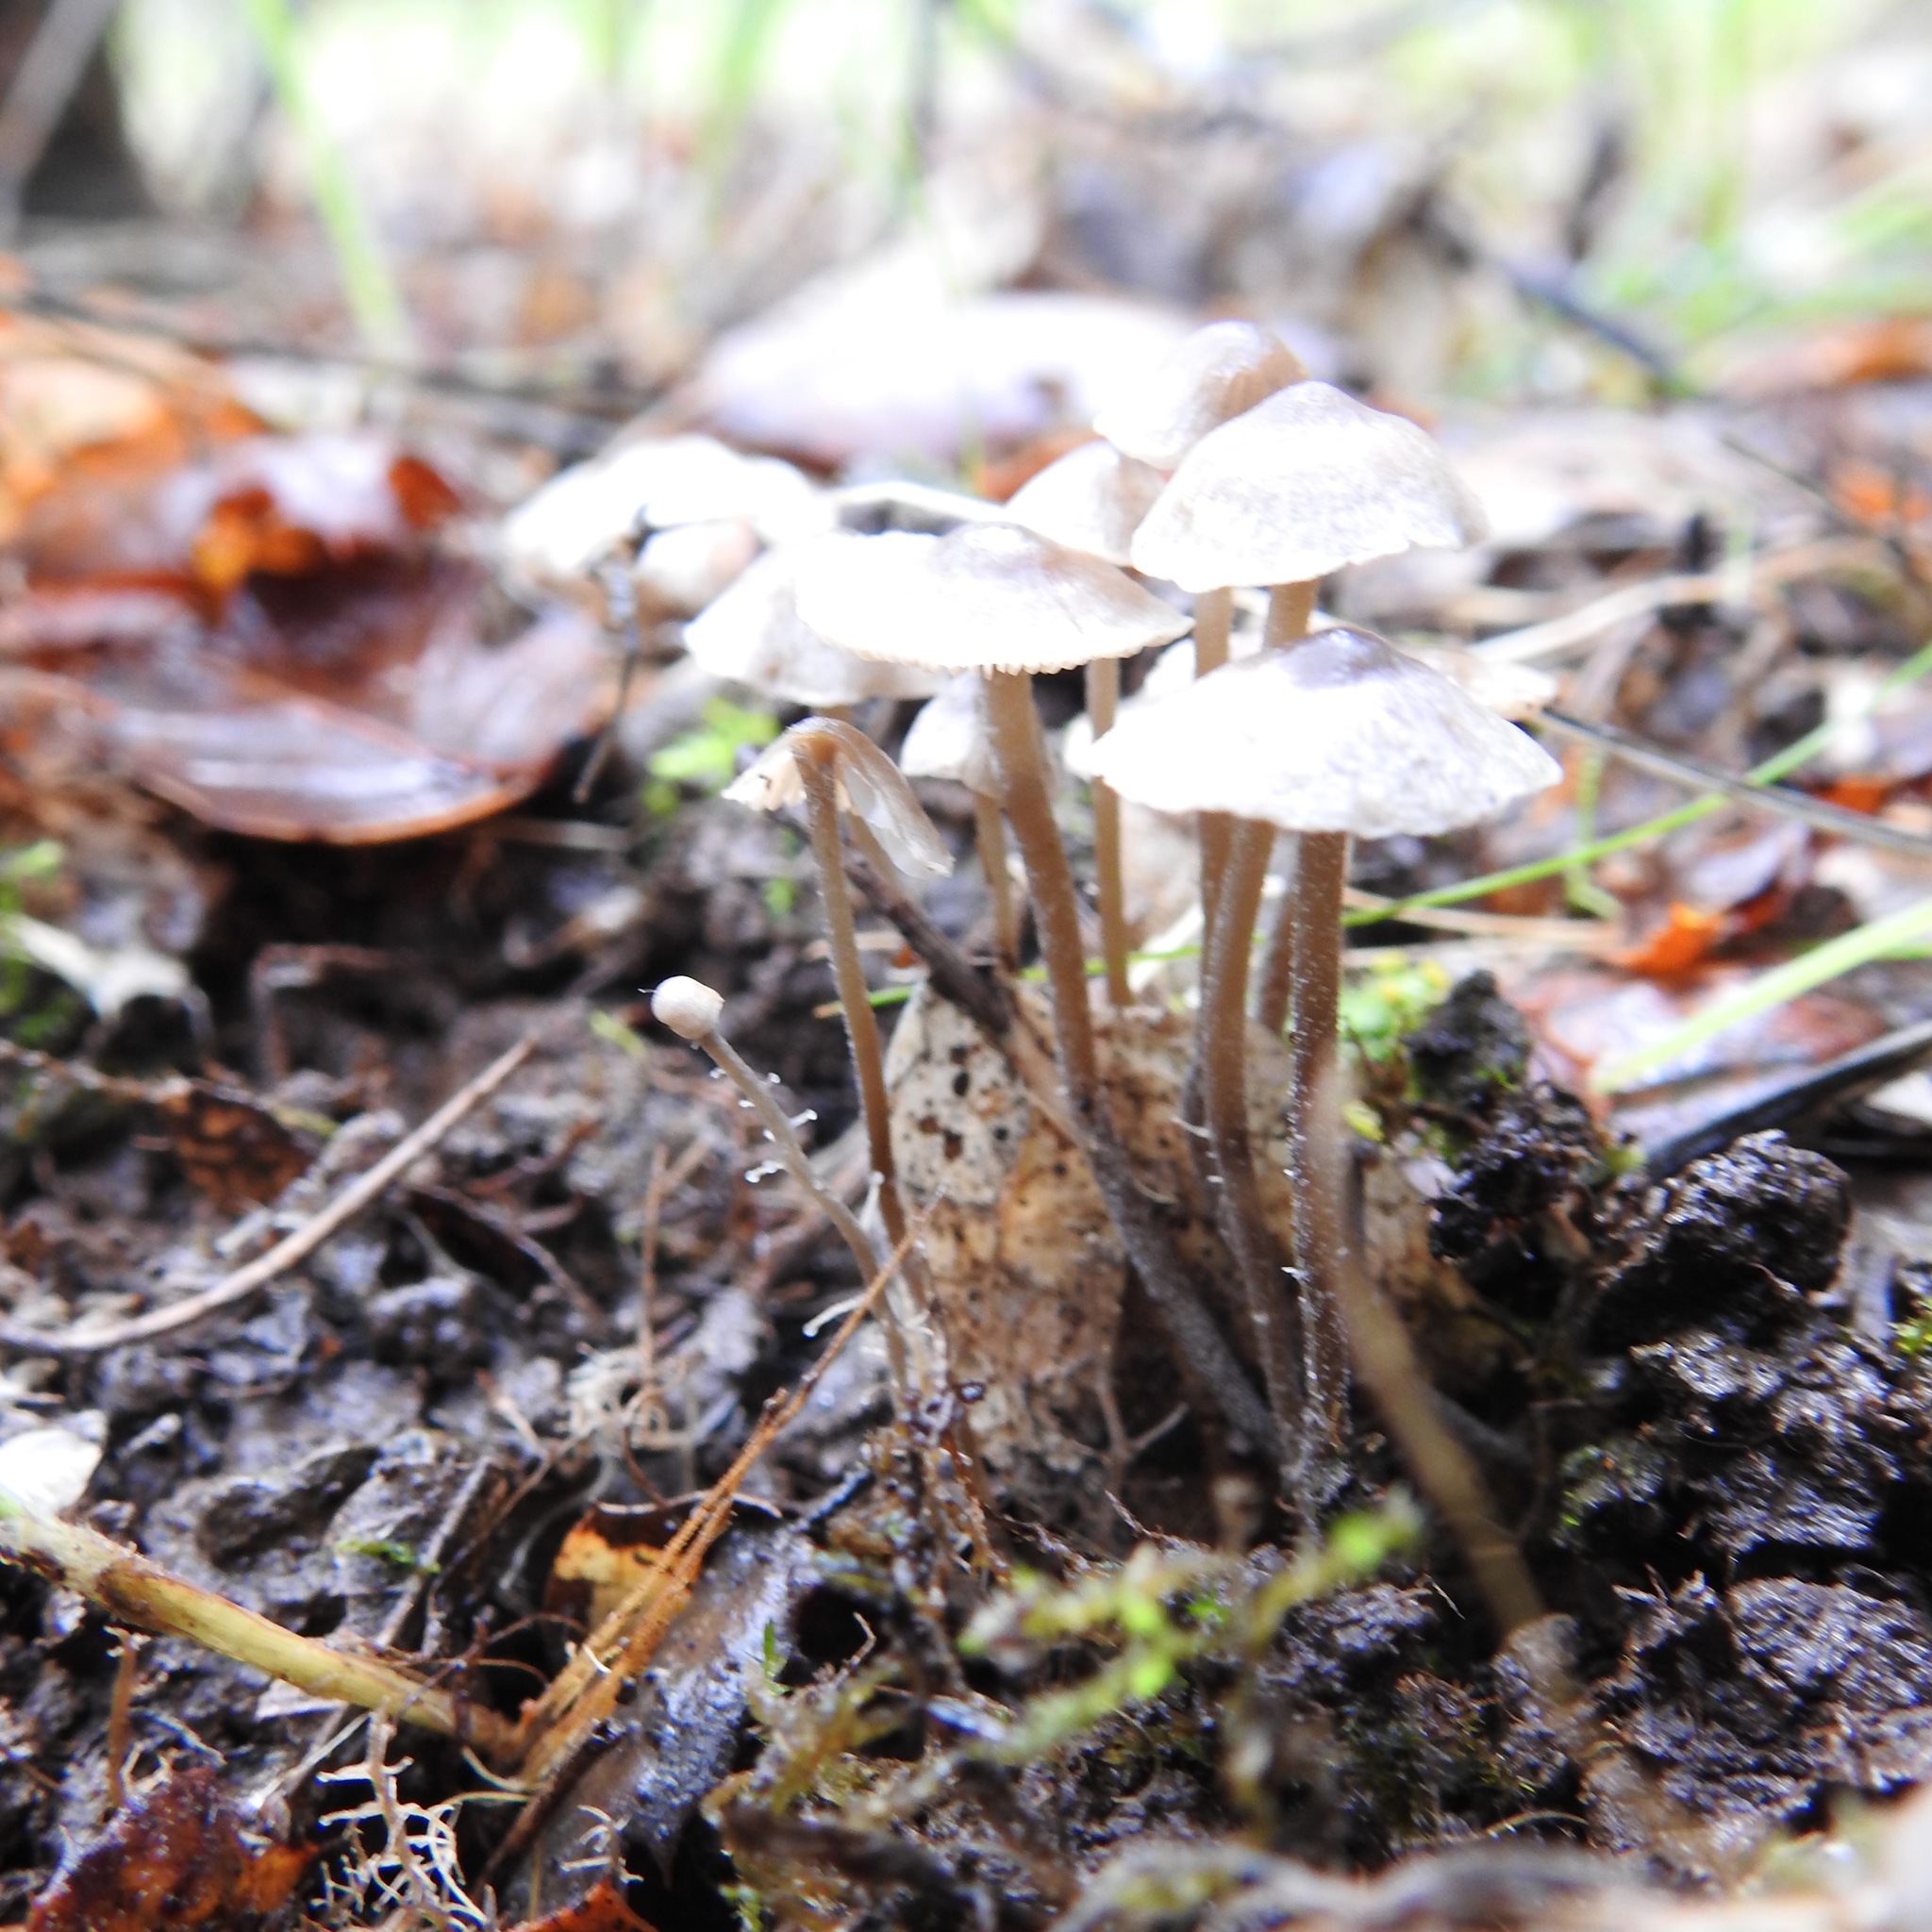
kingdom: Fungi
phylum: Basidiomycota
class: Agaricomycetes
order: Agaricales
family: Tricholomataceae
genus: Dendrocollybia
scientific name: Dendrocollybia racemosa
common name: Branched shanklet
